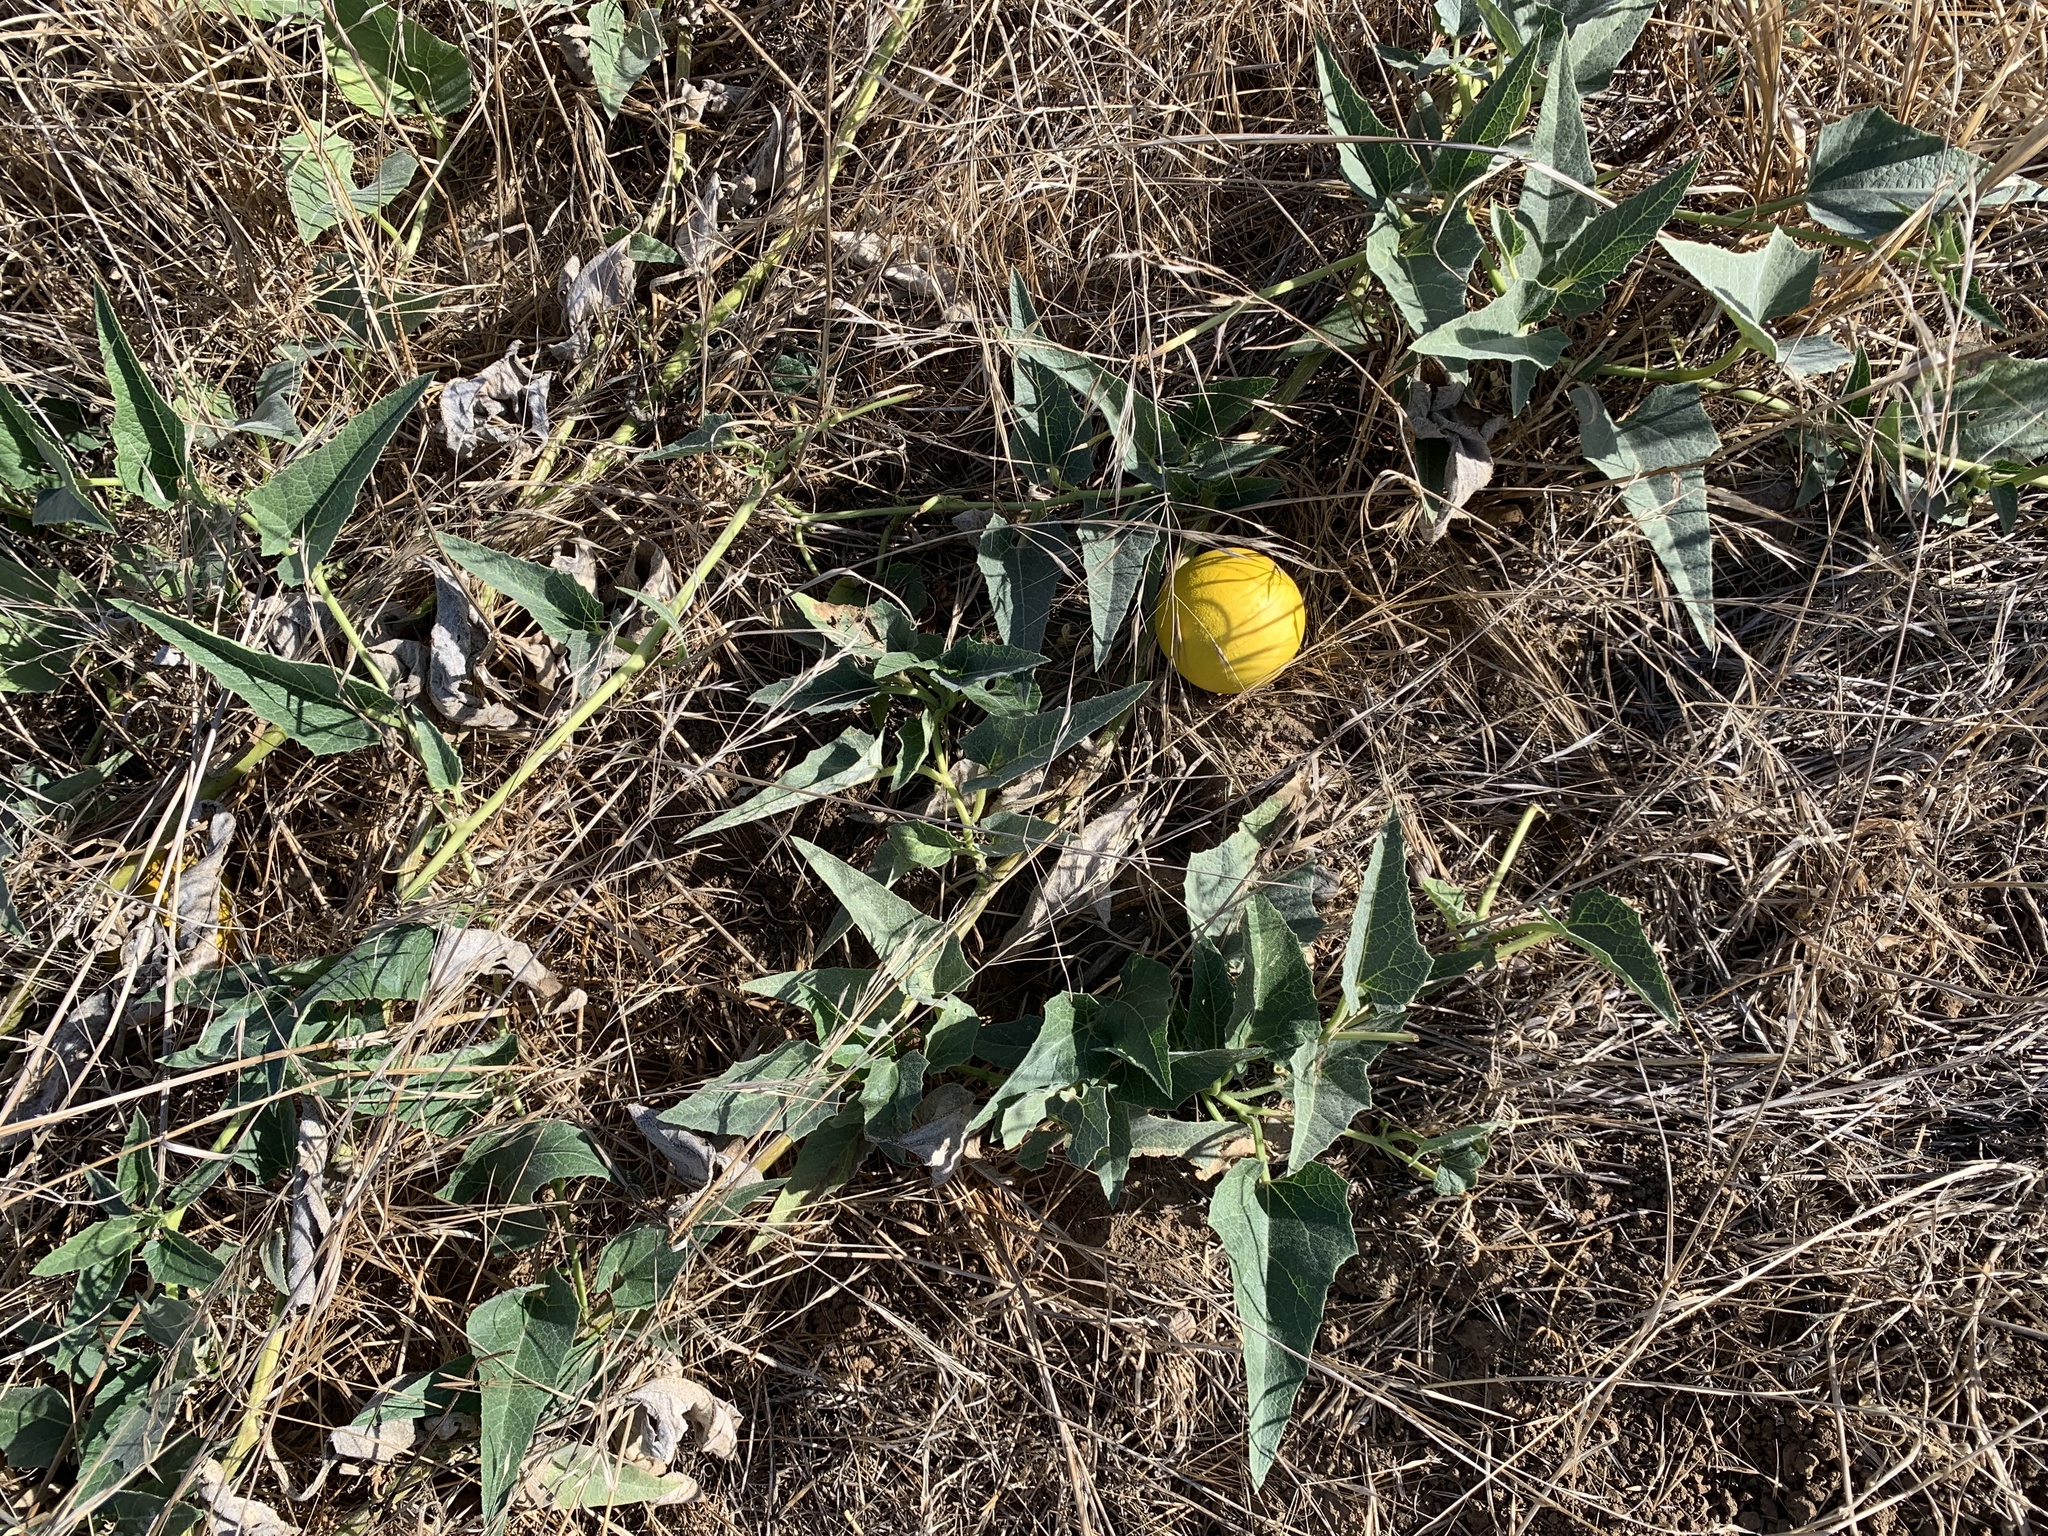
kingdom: Plantae
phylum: Tracheophyta
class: Magnoliopsida
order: Cucurbitales
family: Cucurbitaceae
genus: Cucurbita
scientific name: Cucurbita foetidissima
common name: Buffalo gourd
